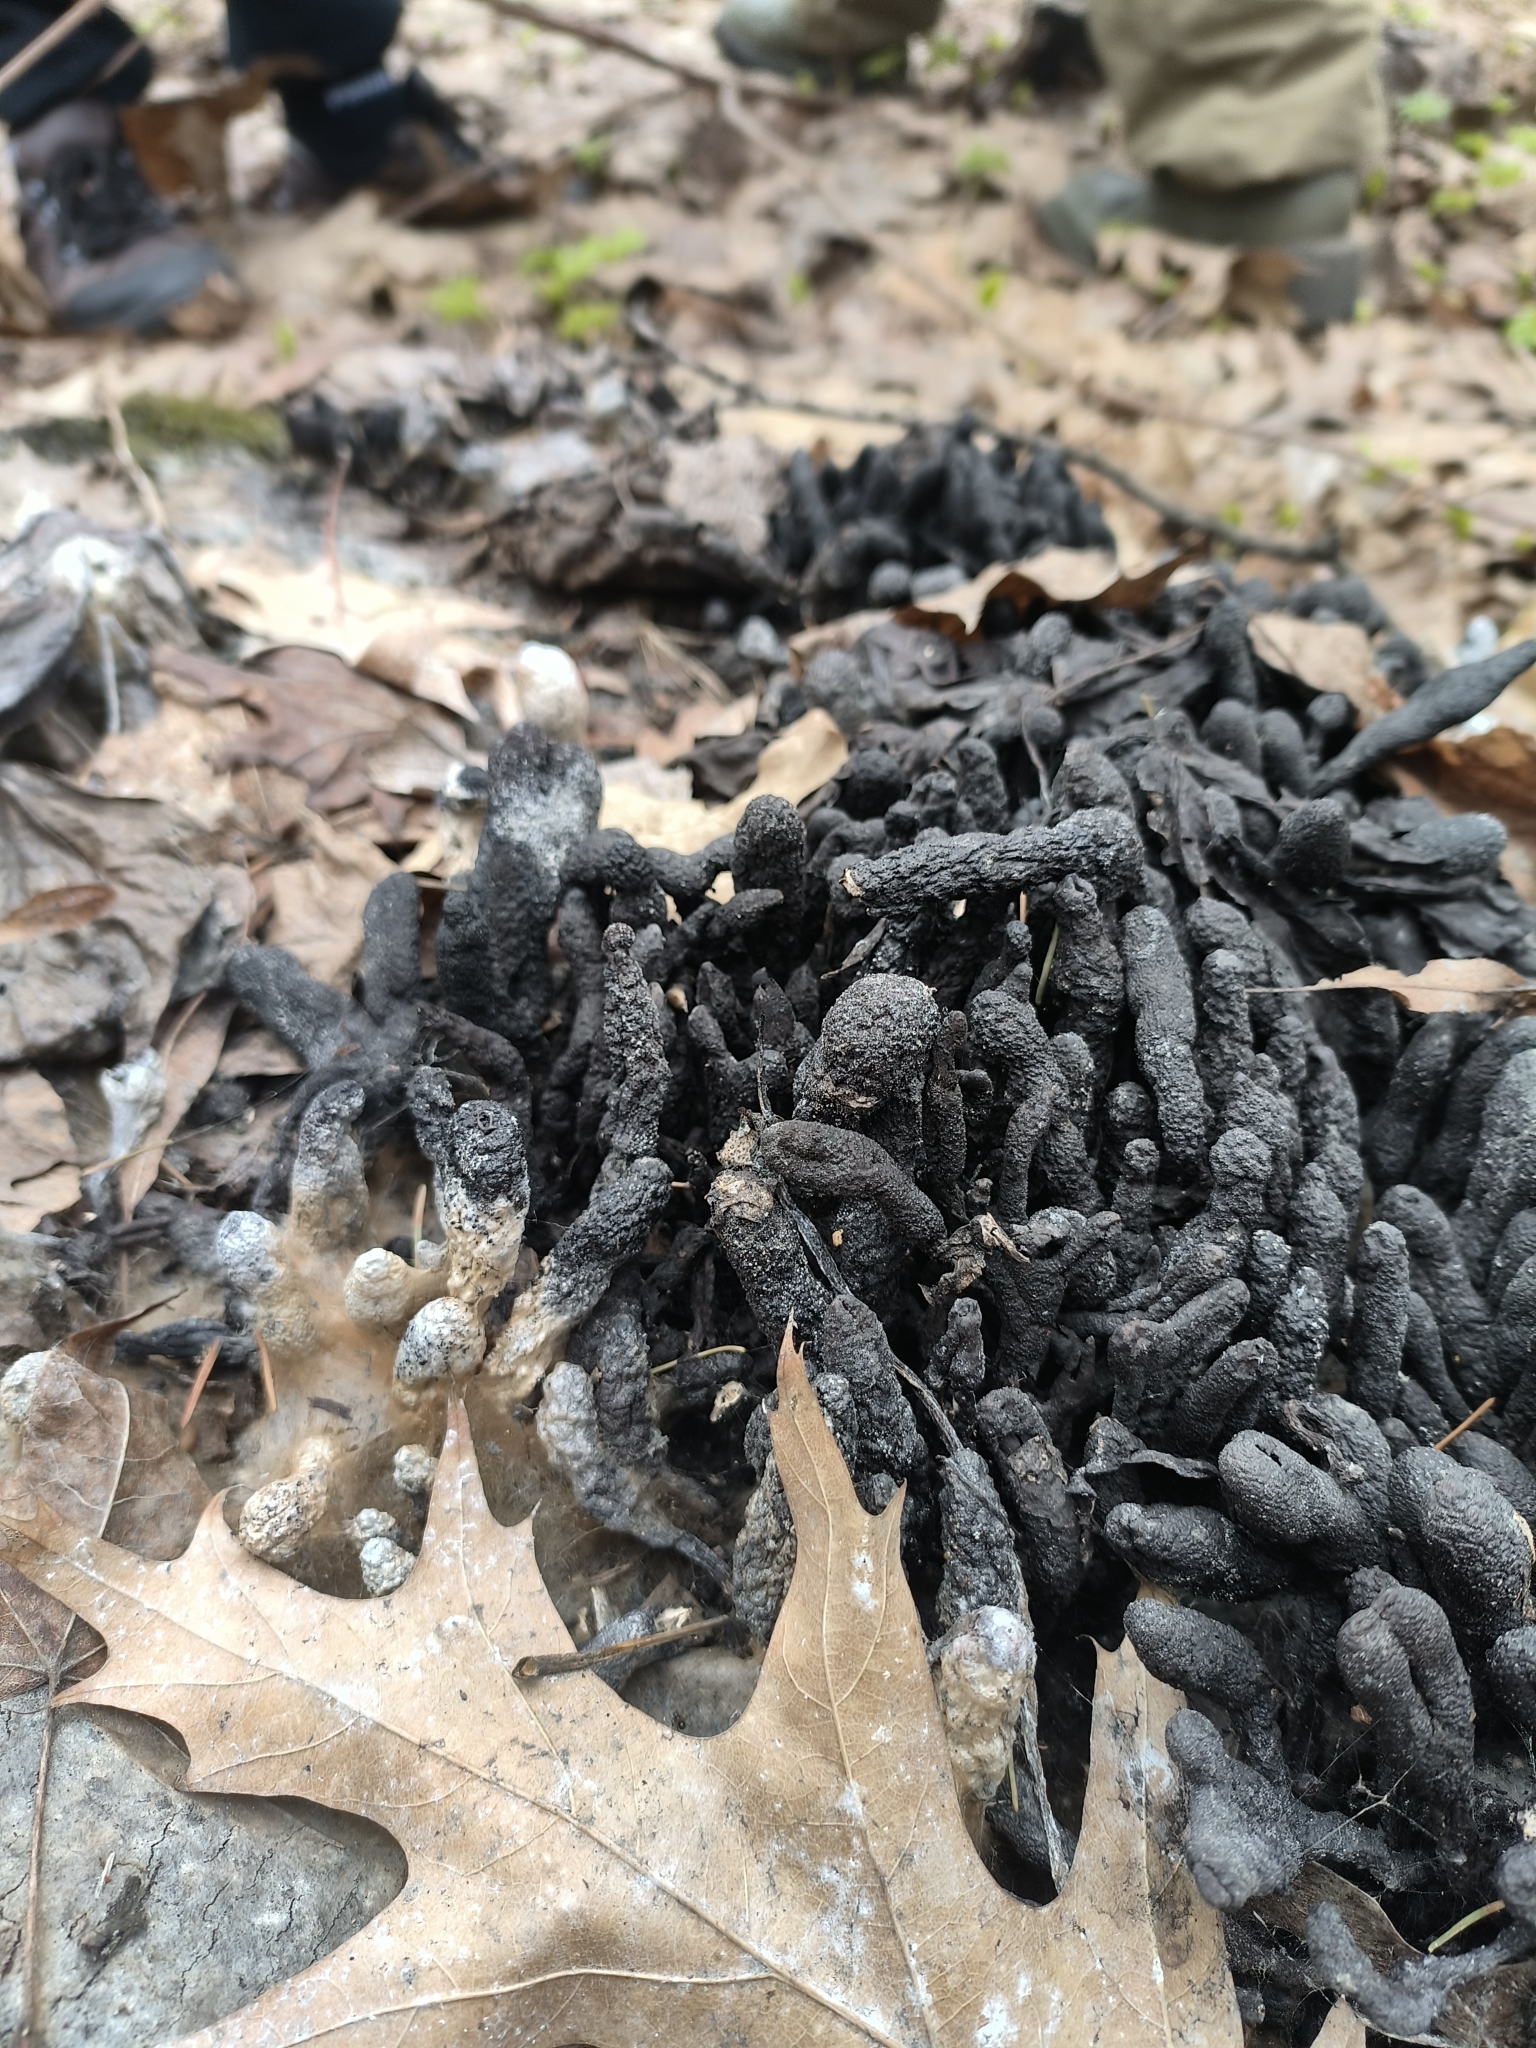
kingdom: Fungi
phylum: Ascomycota
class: Sordariomycetes
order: Xylariales
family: Xylariaceae
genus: Xylaria
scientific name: Xylaria polymorpha
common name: Dead man's fingers
